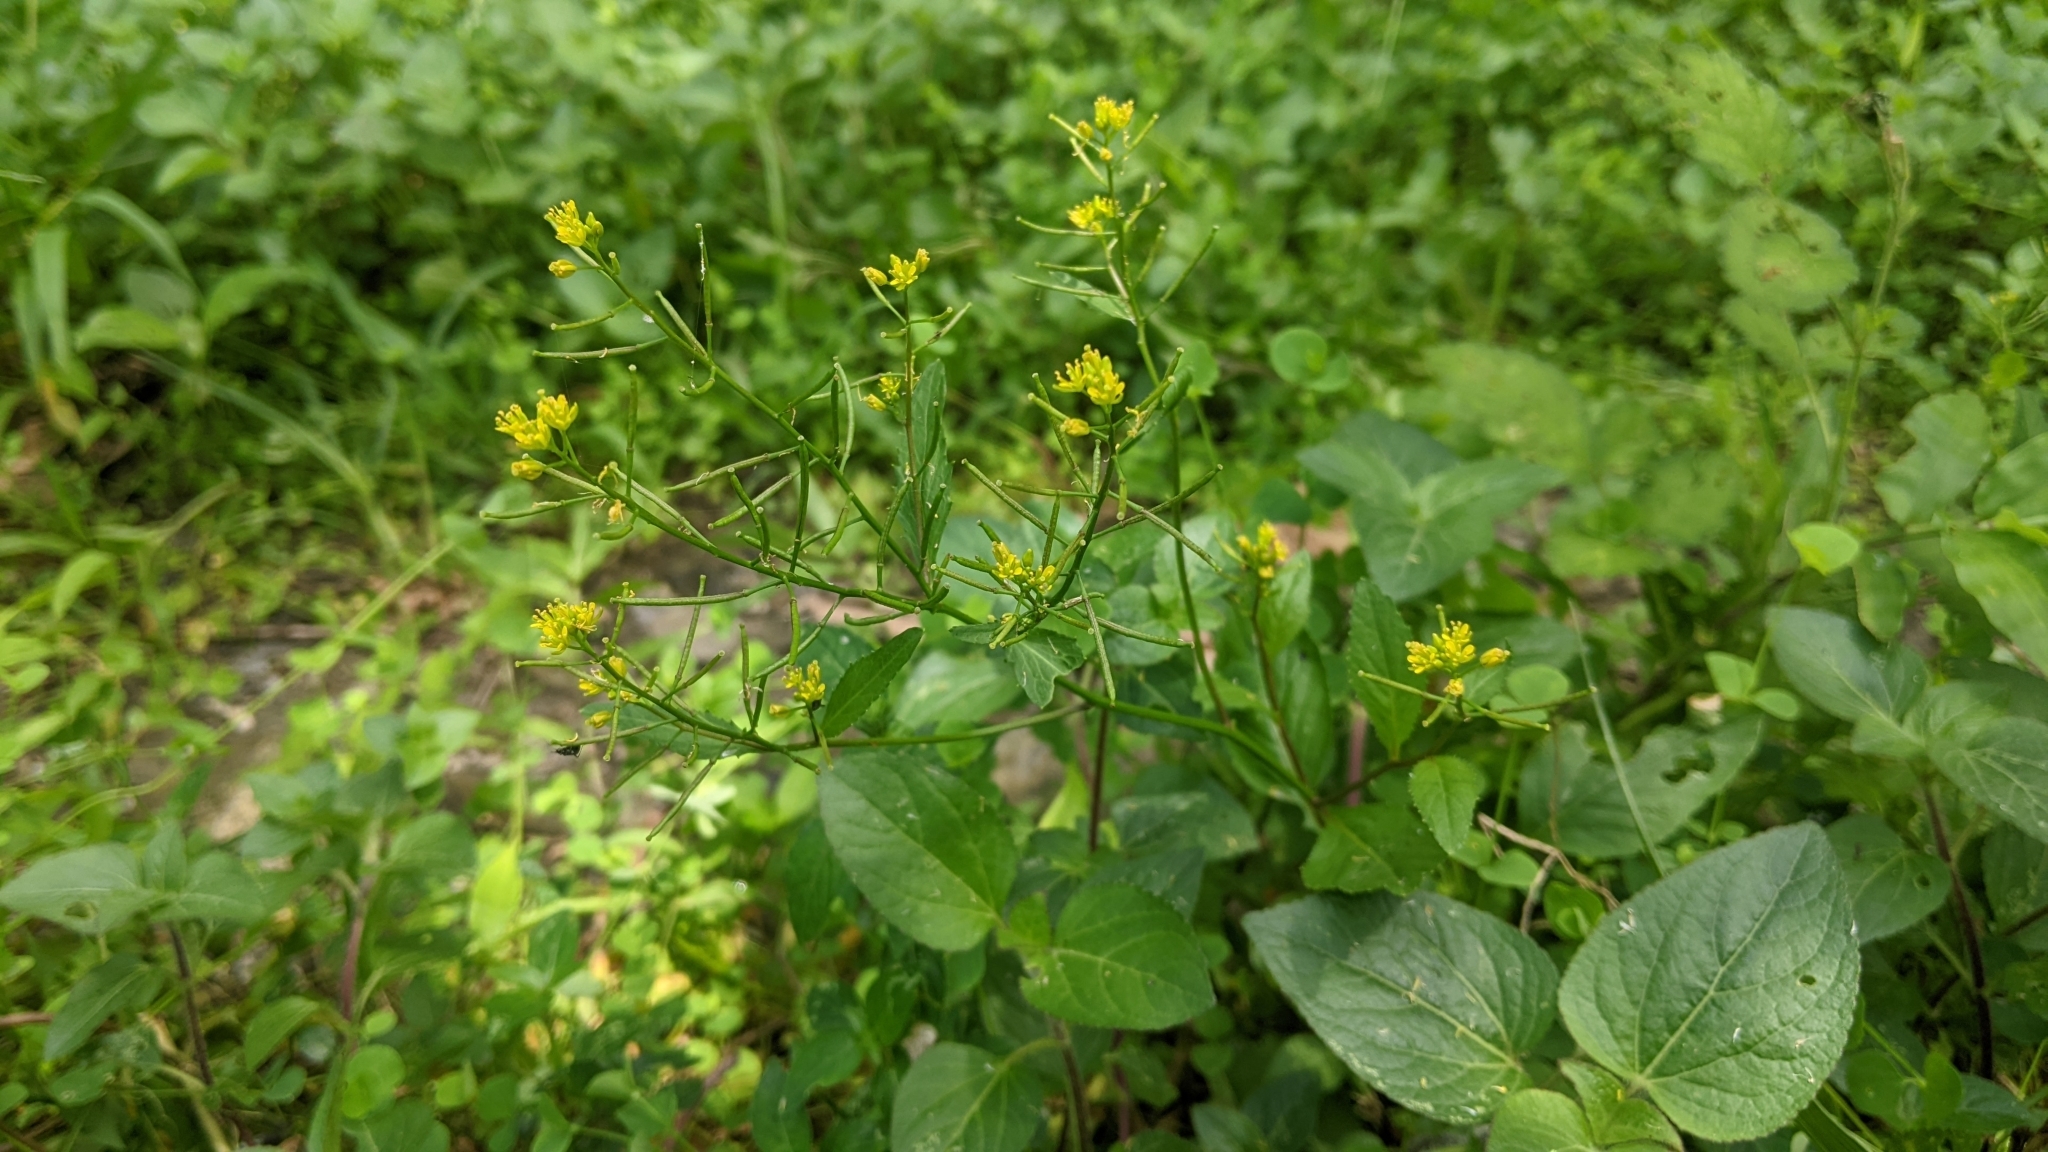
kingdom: Plantae
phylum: Tracheophyta
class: Magnoliopsida
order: Brassicales
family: Brassicaceae
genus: Rorippa
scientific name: Rorippa indica
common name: Variableleaf yellowcress
